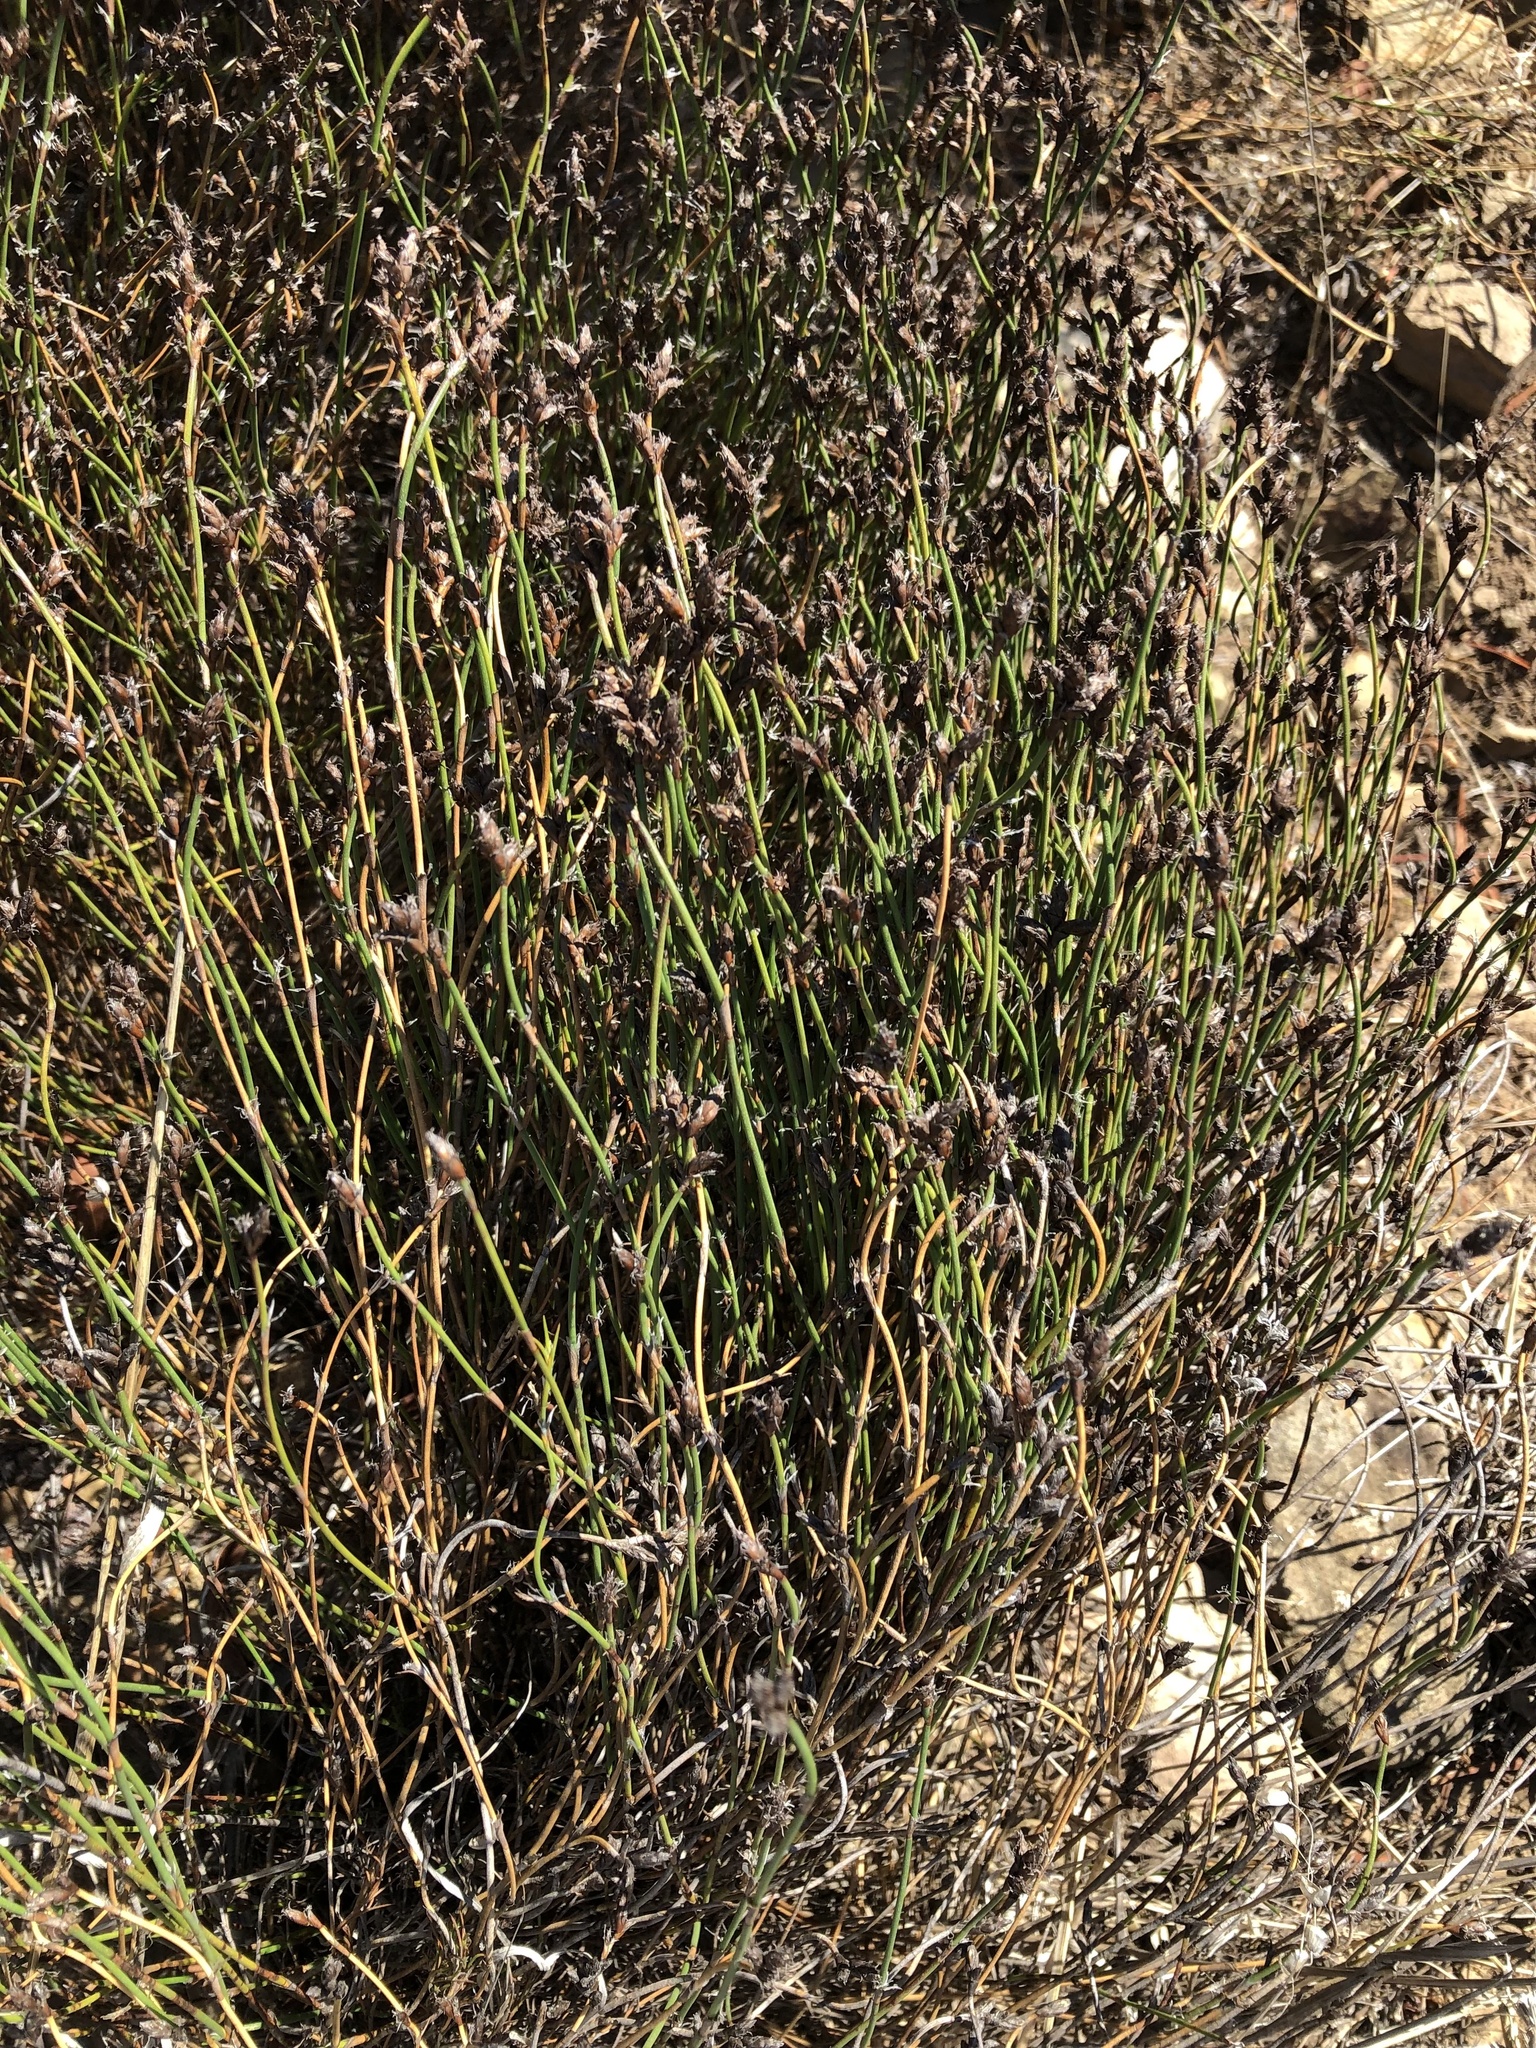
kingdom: Plantae
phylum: Tracheophyta
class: Liliopsida
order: Poales
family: Restionaceae
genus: Restio
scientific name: Restio capensis
